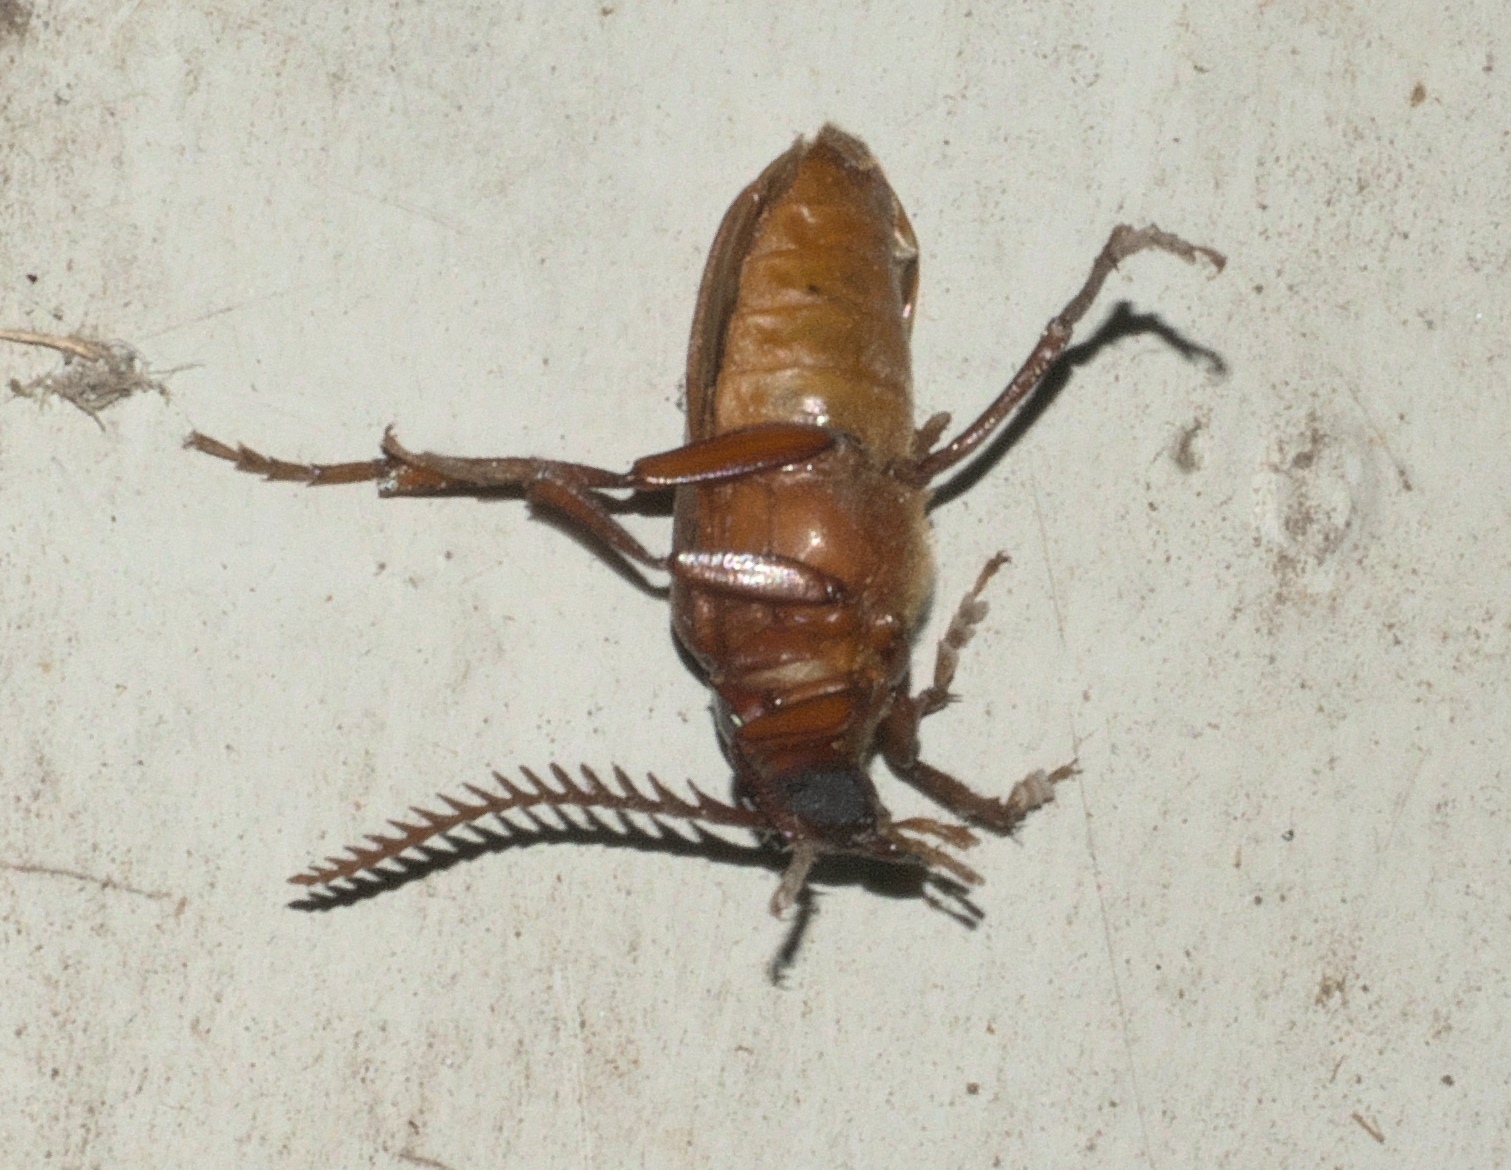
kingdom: Animalia
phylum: Arthropoda
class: Insecta
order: Coleoptera
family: Cerambycidae
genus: Prionus
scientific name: Prionus debilis
